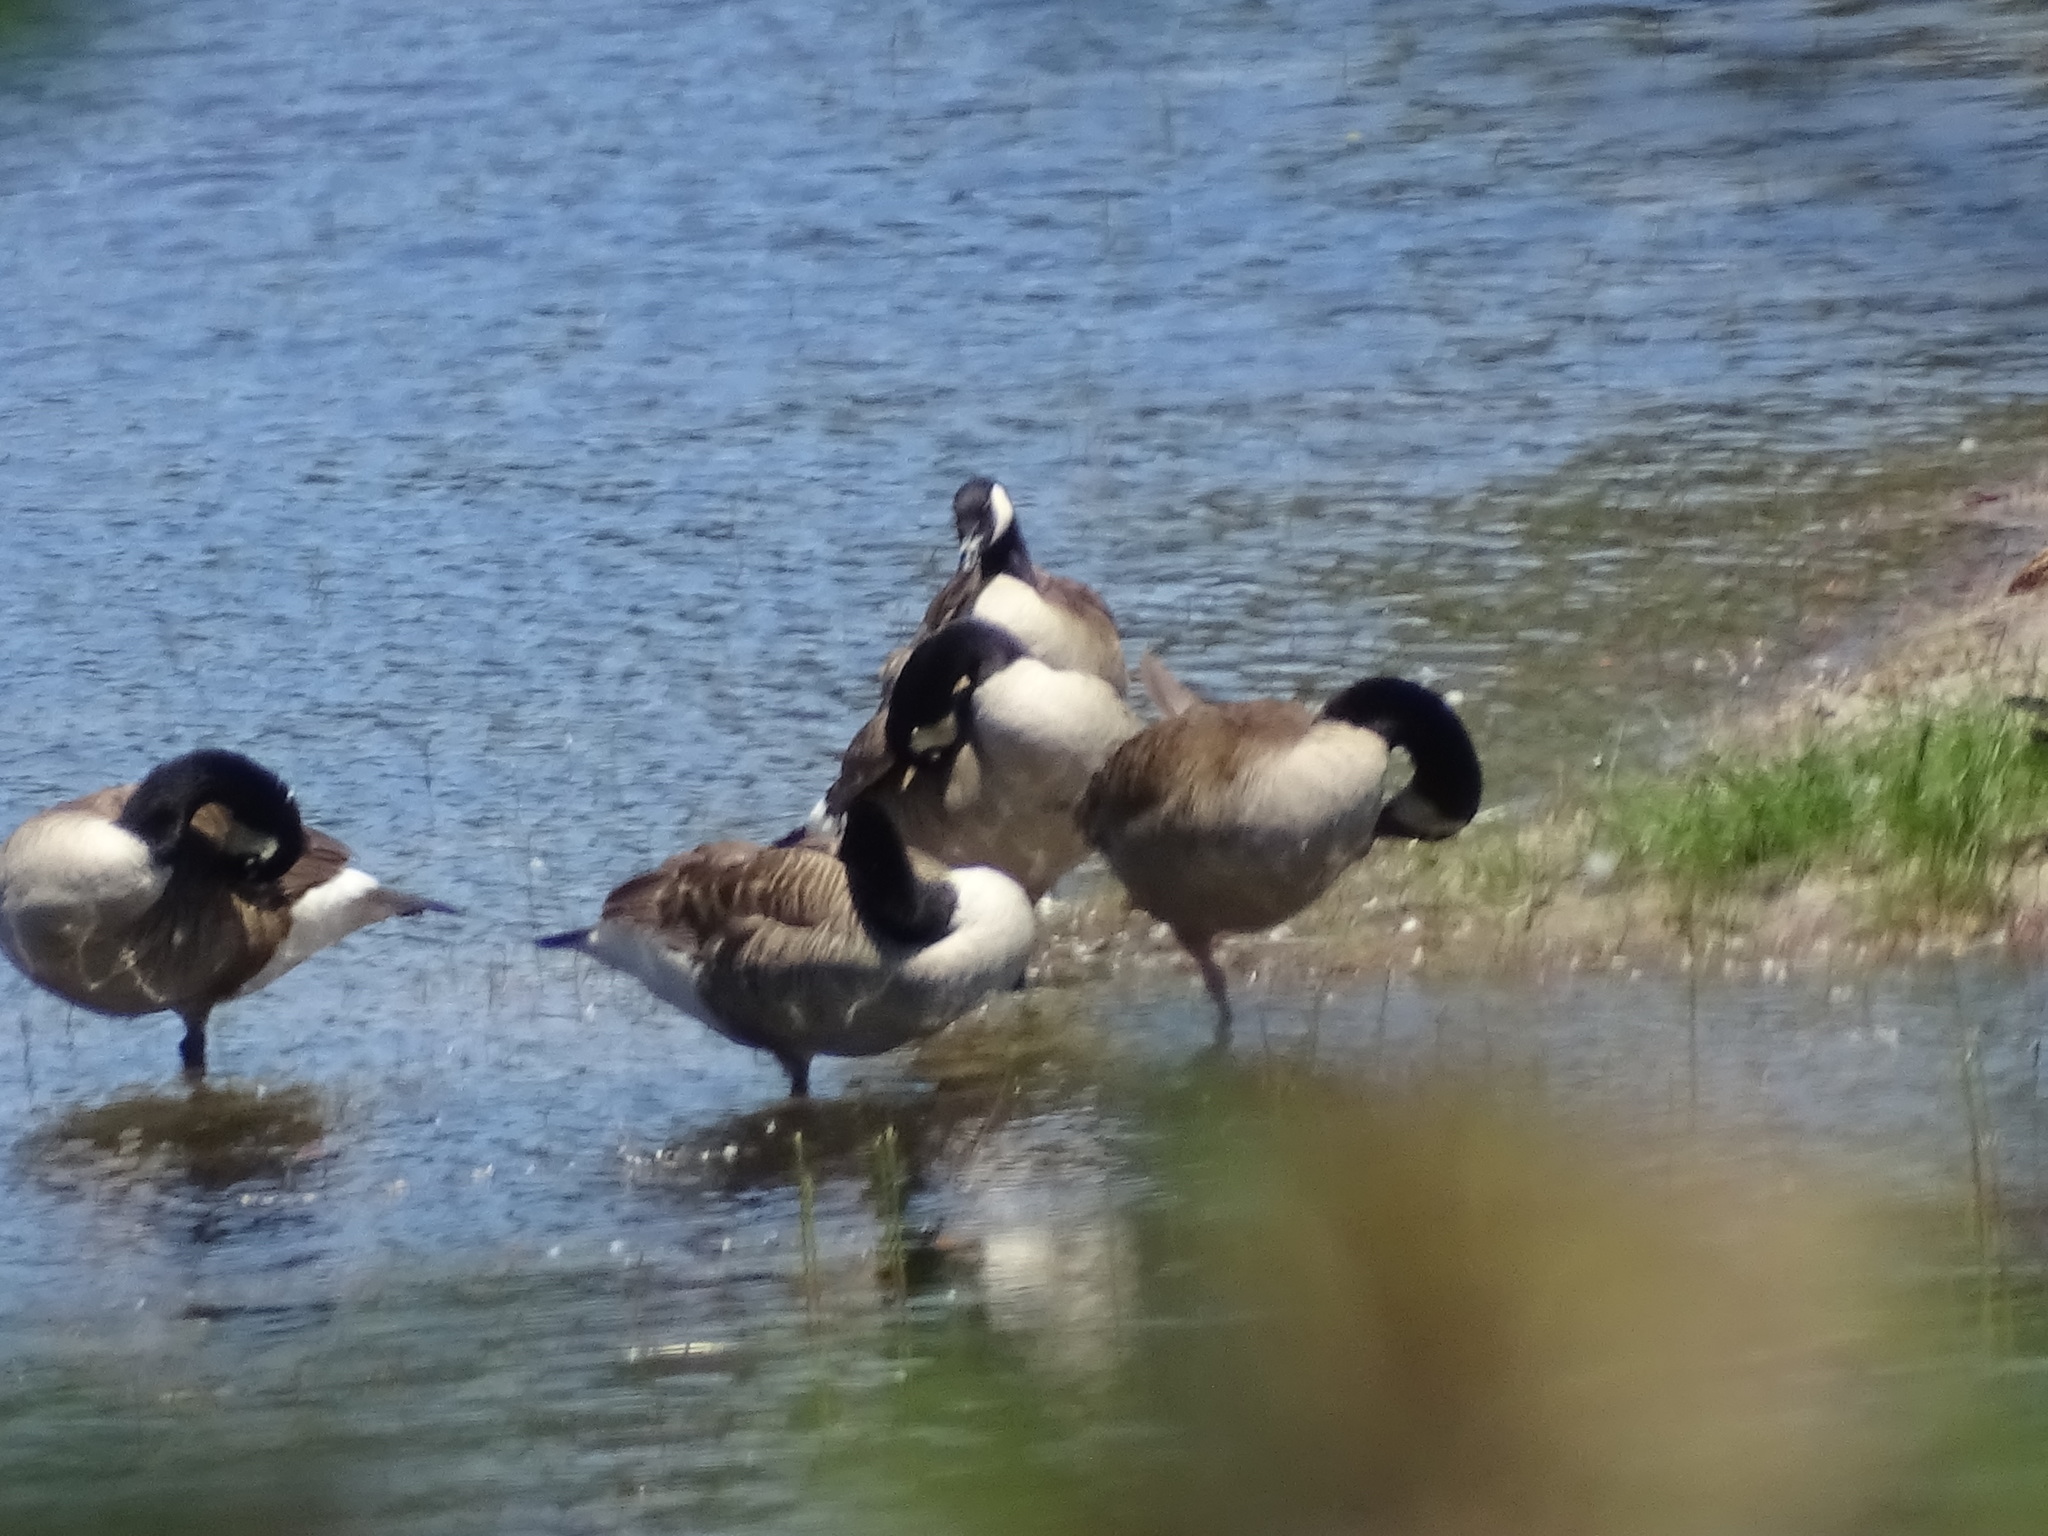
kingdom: Animalia
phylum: Chordata
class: Aves
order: Anseriformes
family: Anatidae
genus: Branta
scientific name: Branta canadensis
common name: Canada goose
